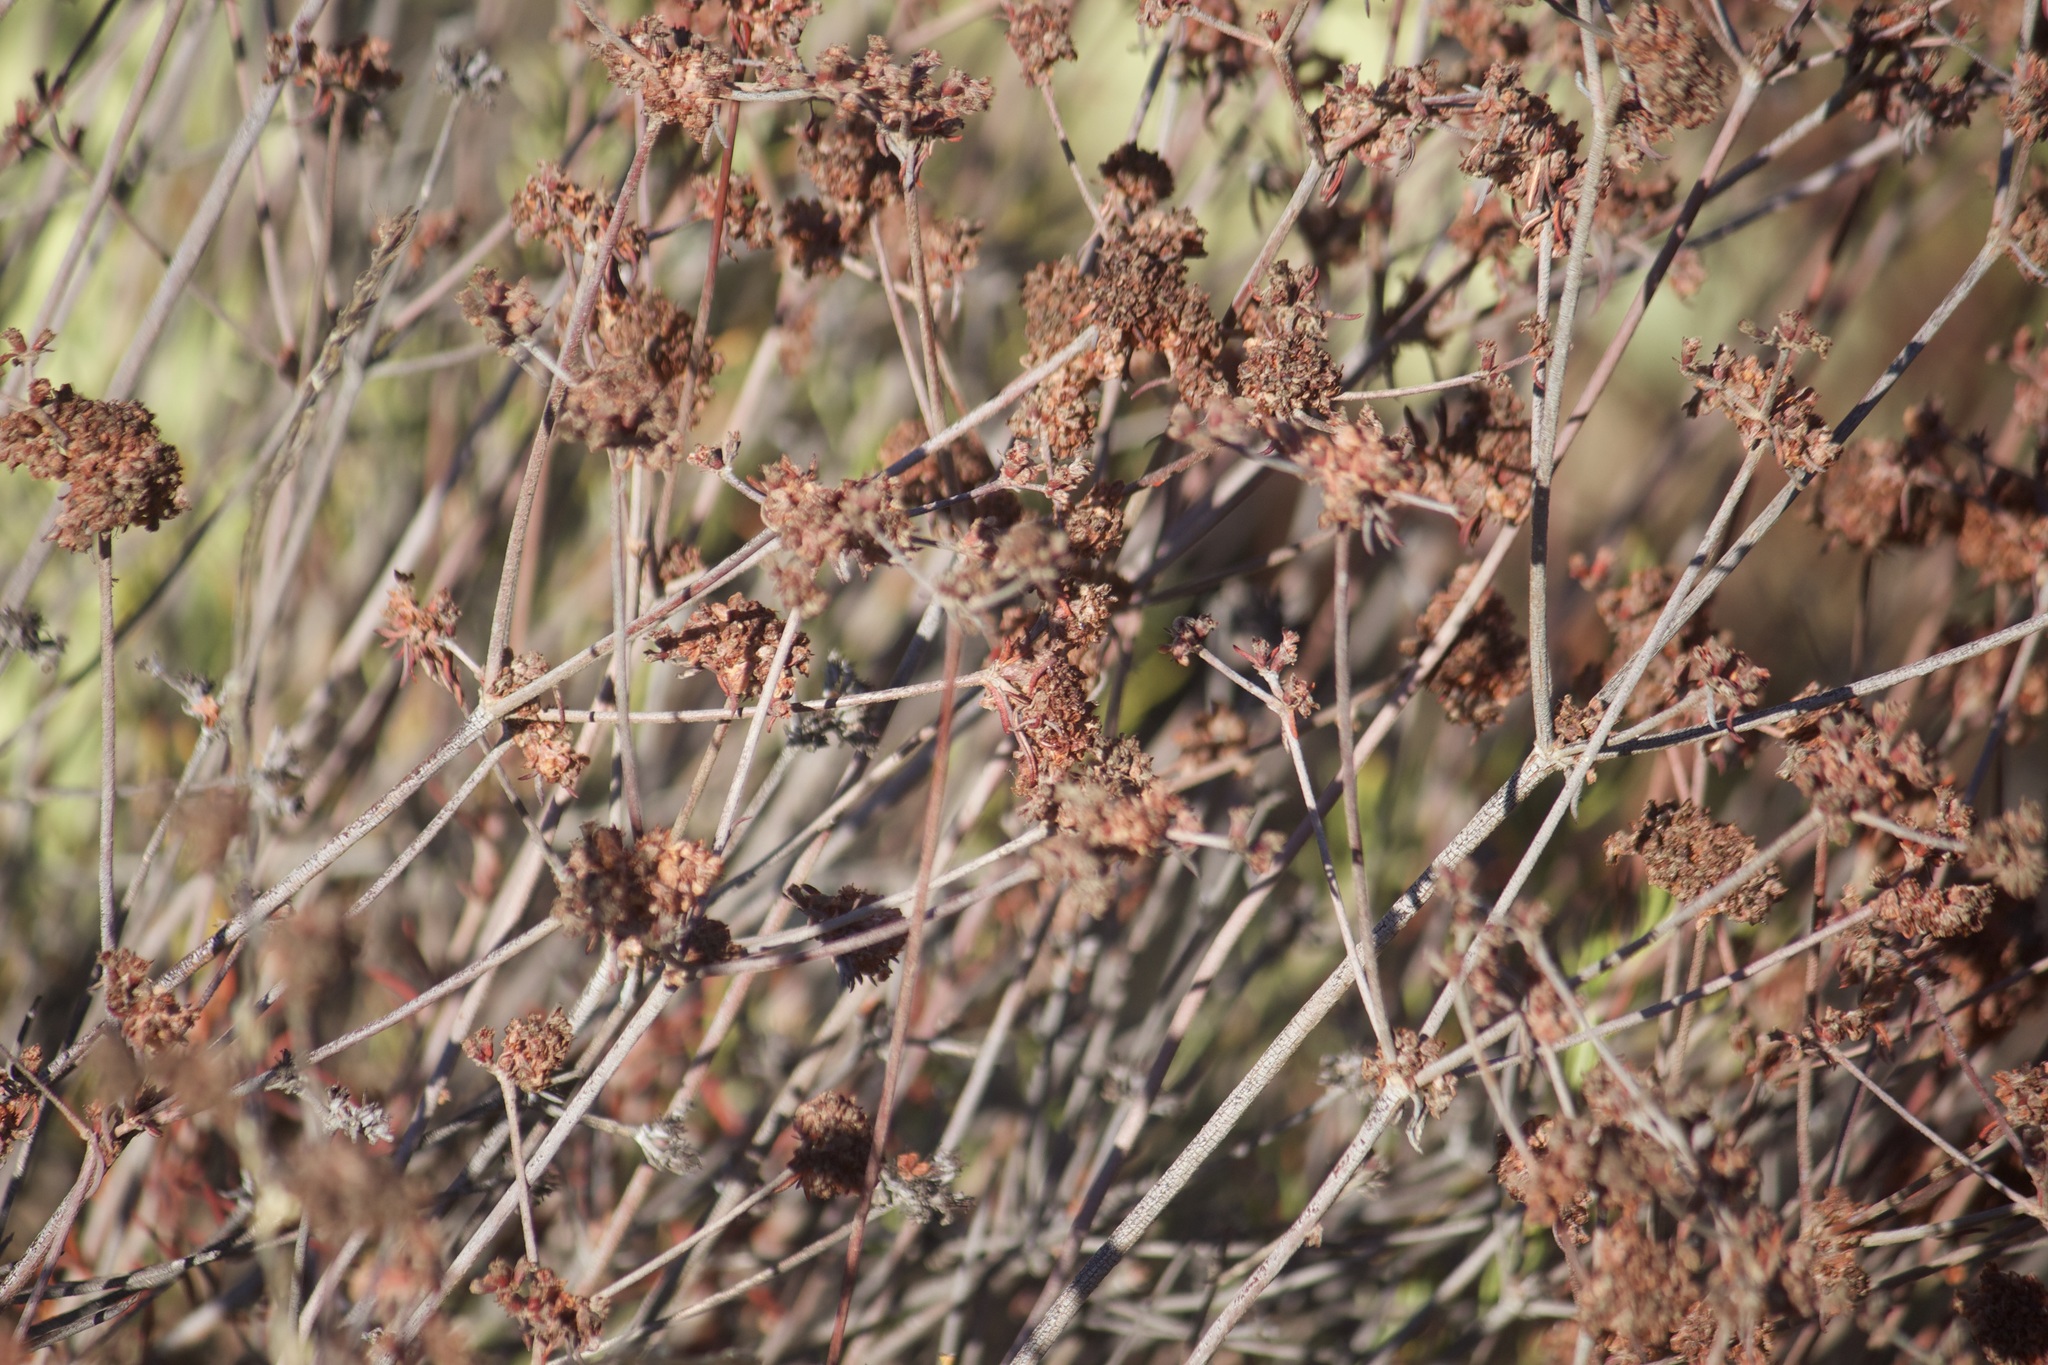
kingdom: Plantae
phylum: Tracheophyta
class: Magnoliopsida
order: Caryophyllales
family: Polygonaceae
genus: Eriogonum
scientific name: Eriogonum fasciculatum
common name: California wild buckwheat
